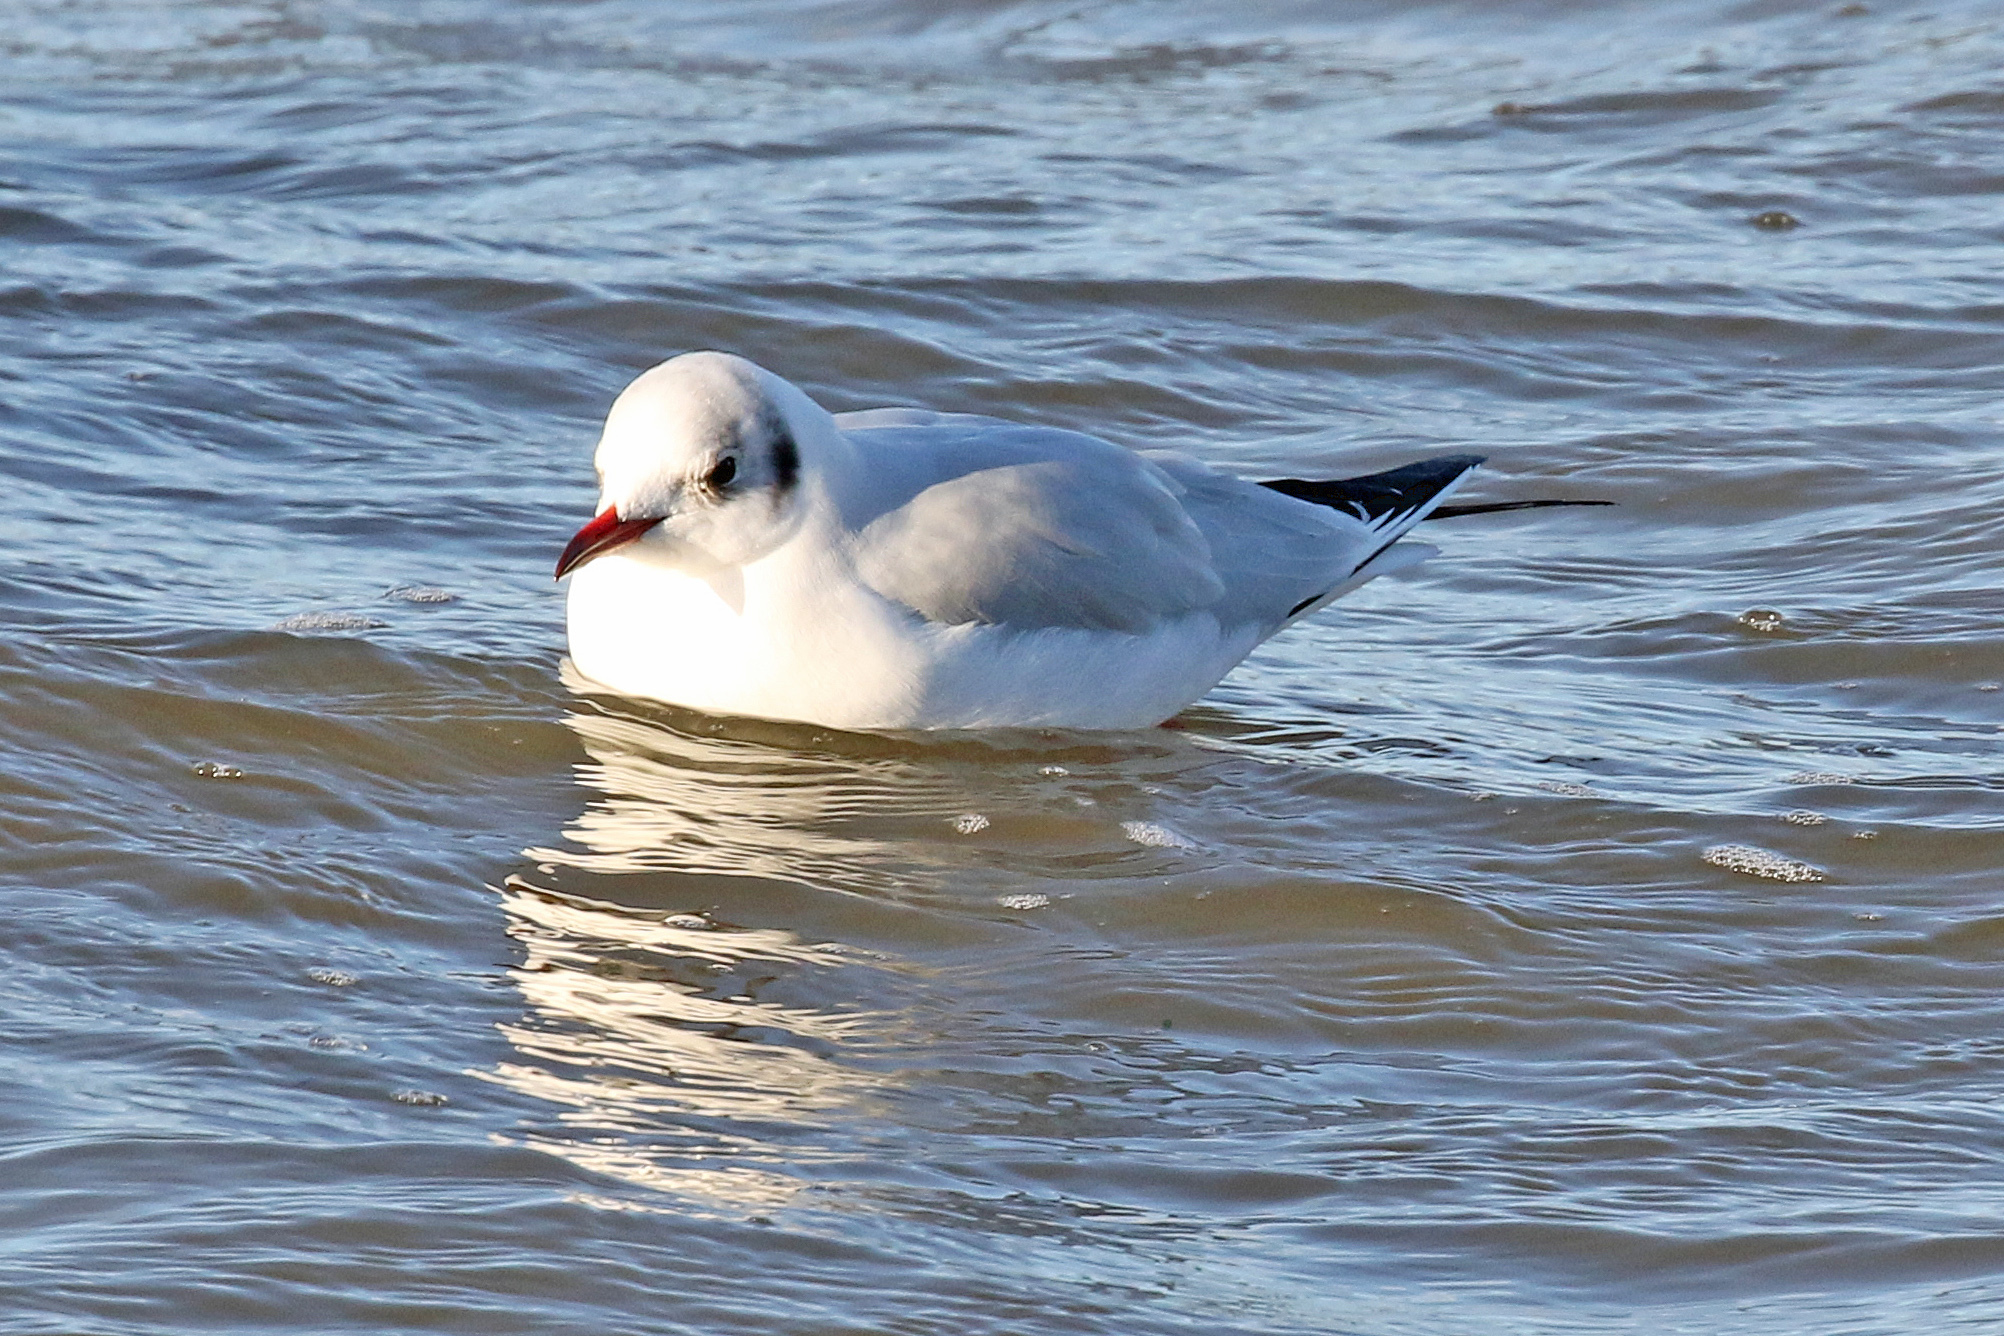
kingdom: Animalia
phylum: Chordata
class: Aves
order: Charadriiformes
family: Laridae
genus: Chroicocephalus
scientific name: Chroicocephalus ridibundus
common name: Black-headed gull
